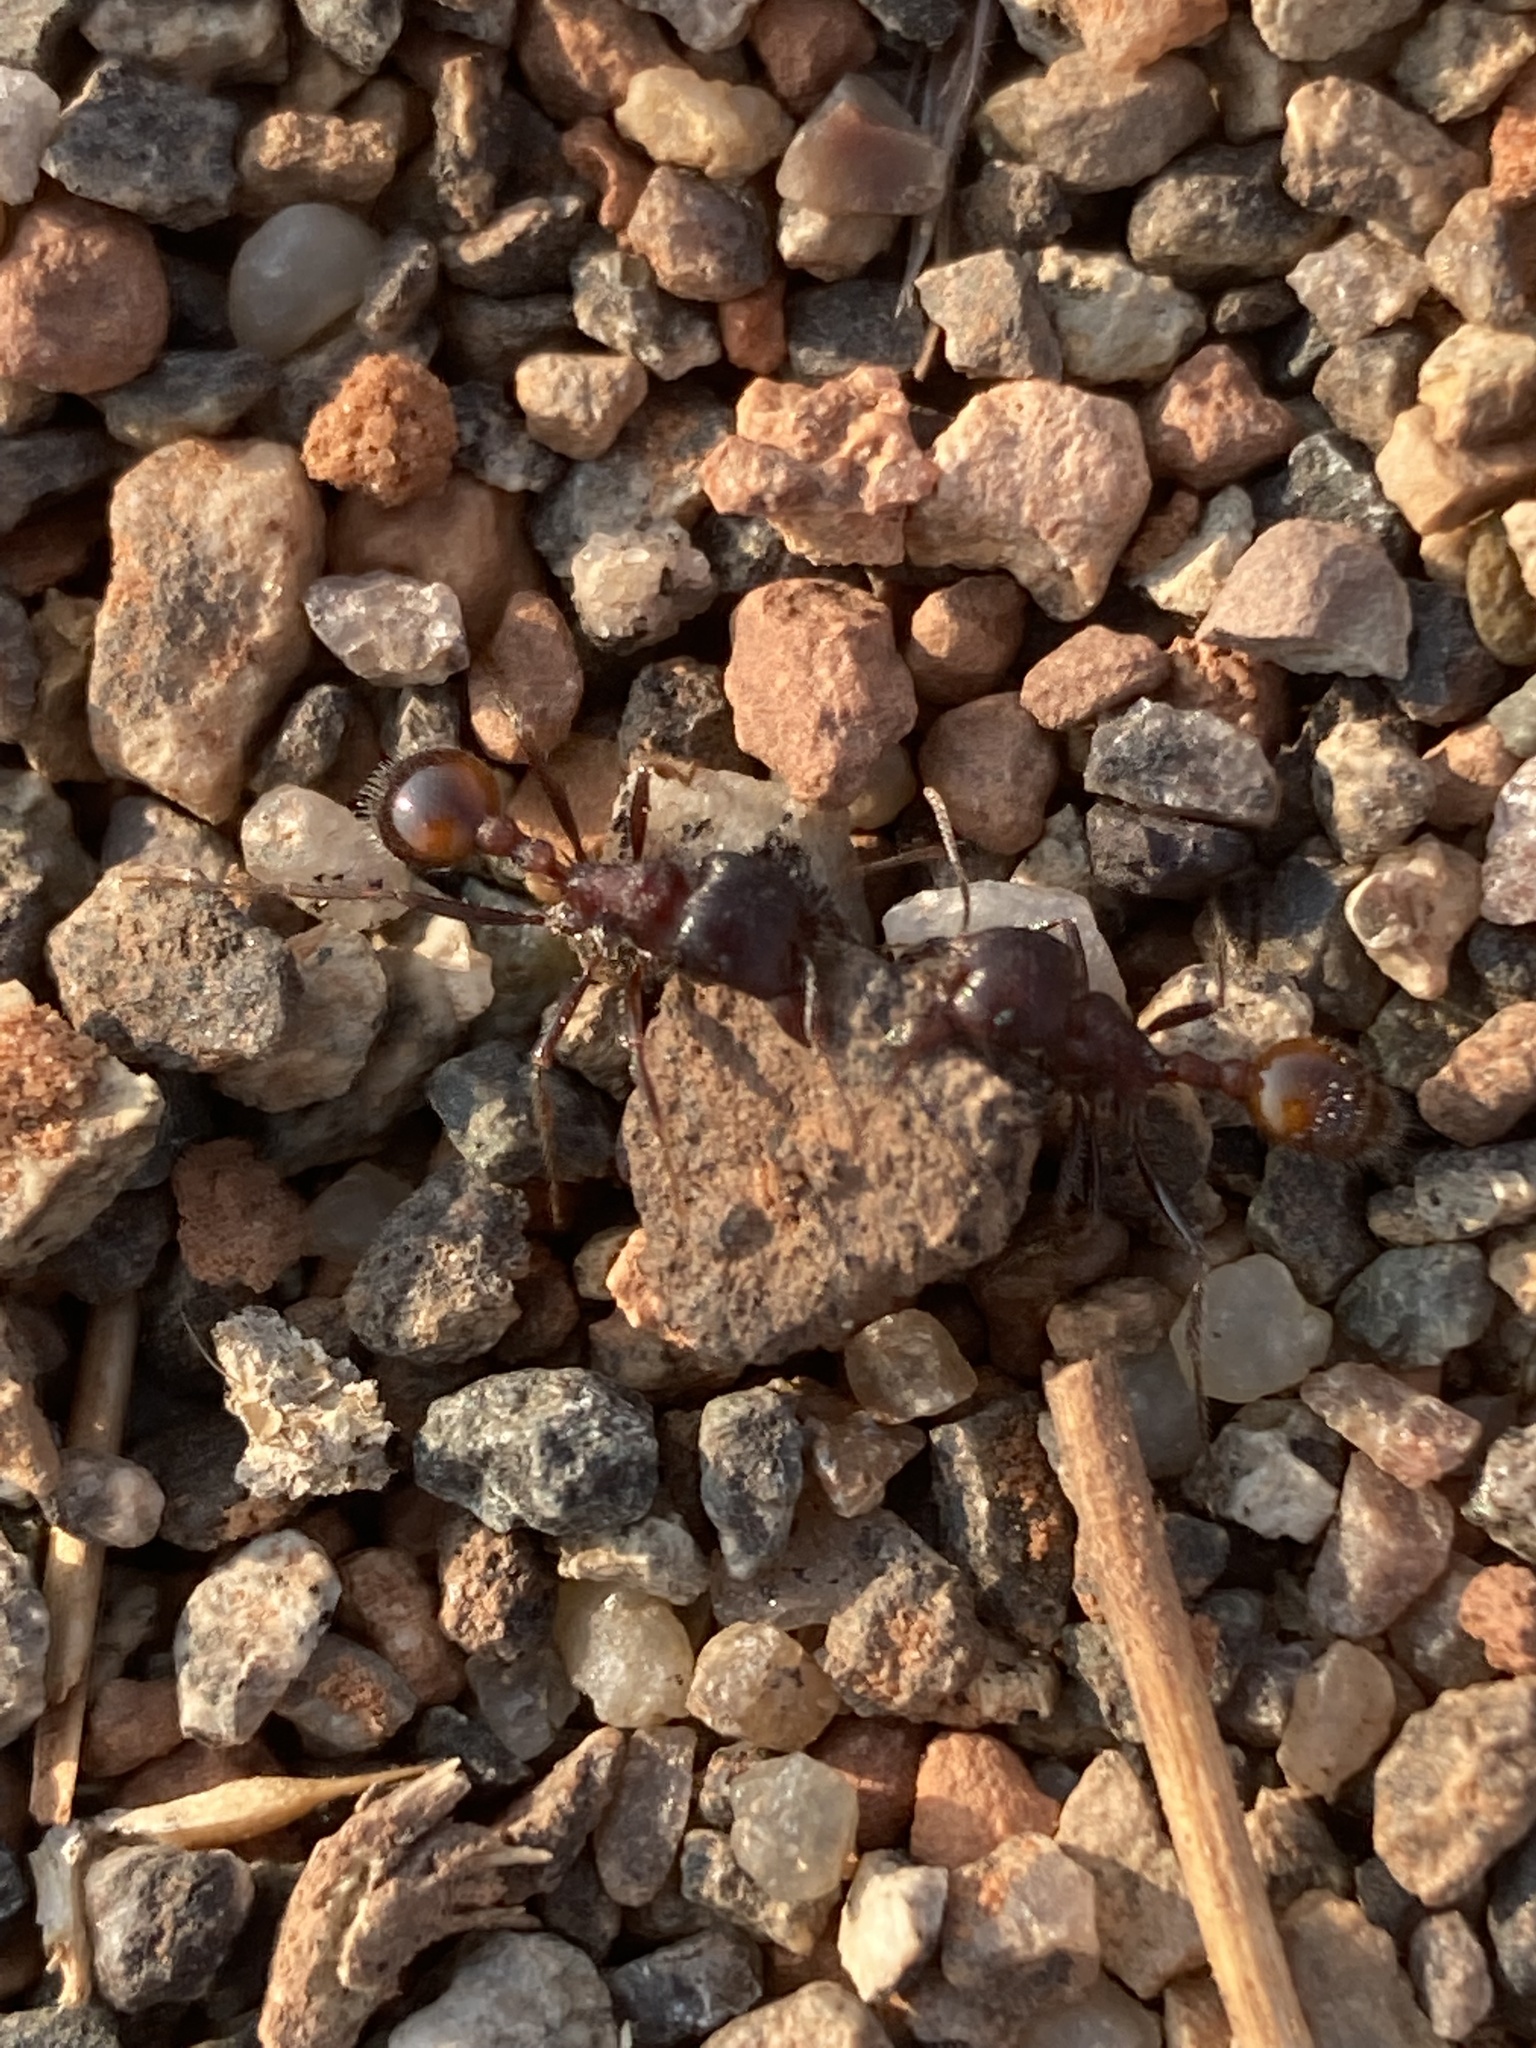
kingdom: Animalia
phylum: Arthropoda
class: Insecta
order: Hymenoptera
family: Formicidae
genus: Pogonomyrmex
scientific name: Pogonomyrmex rugosus
